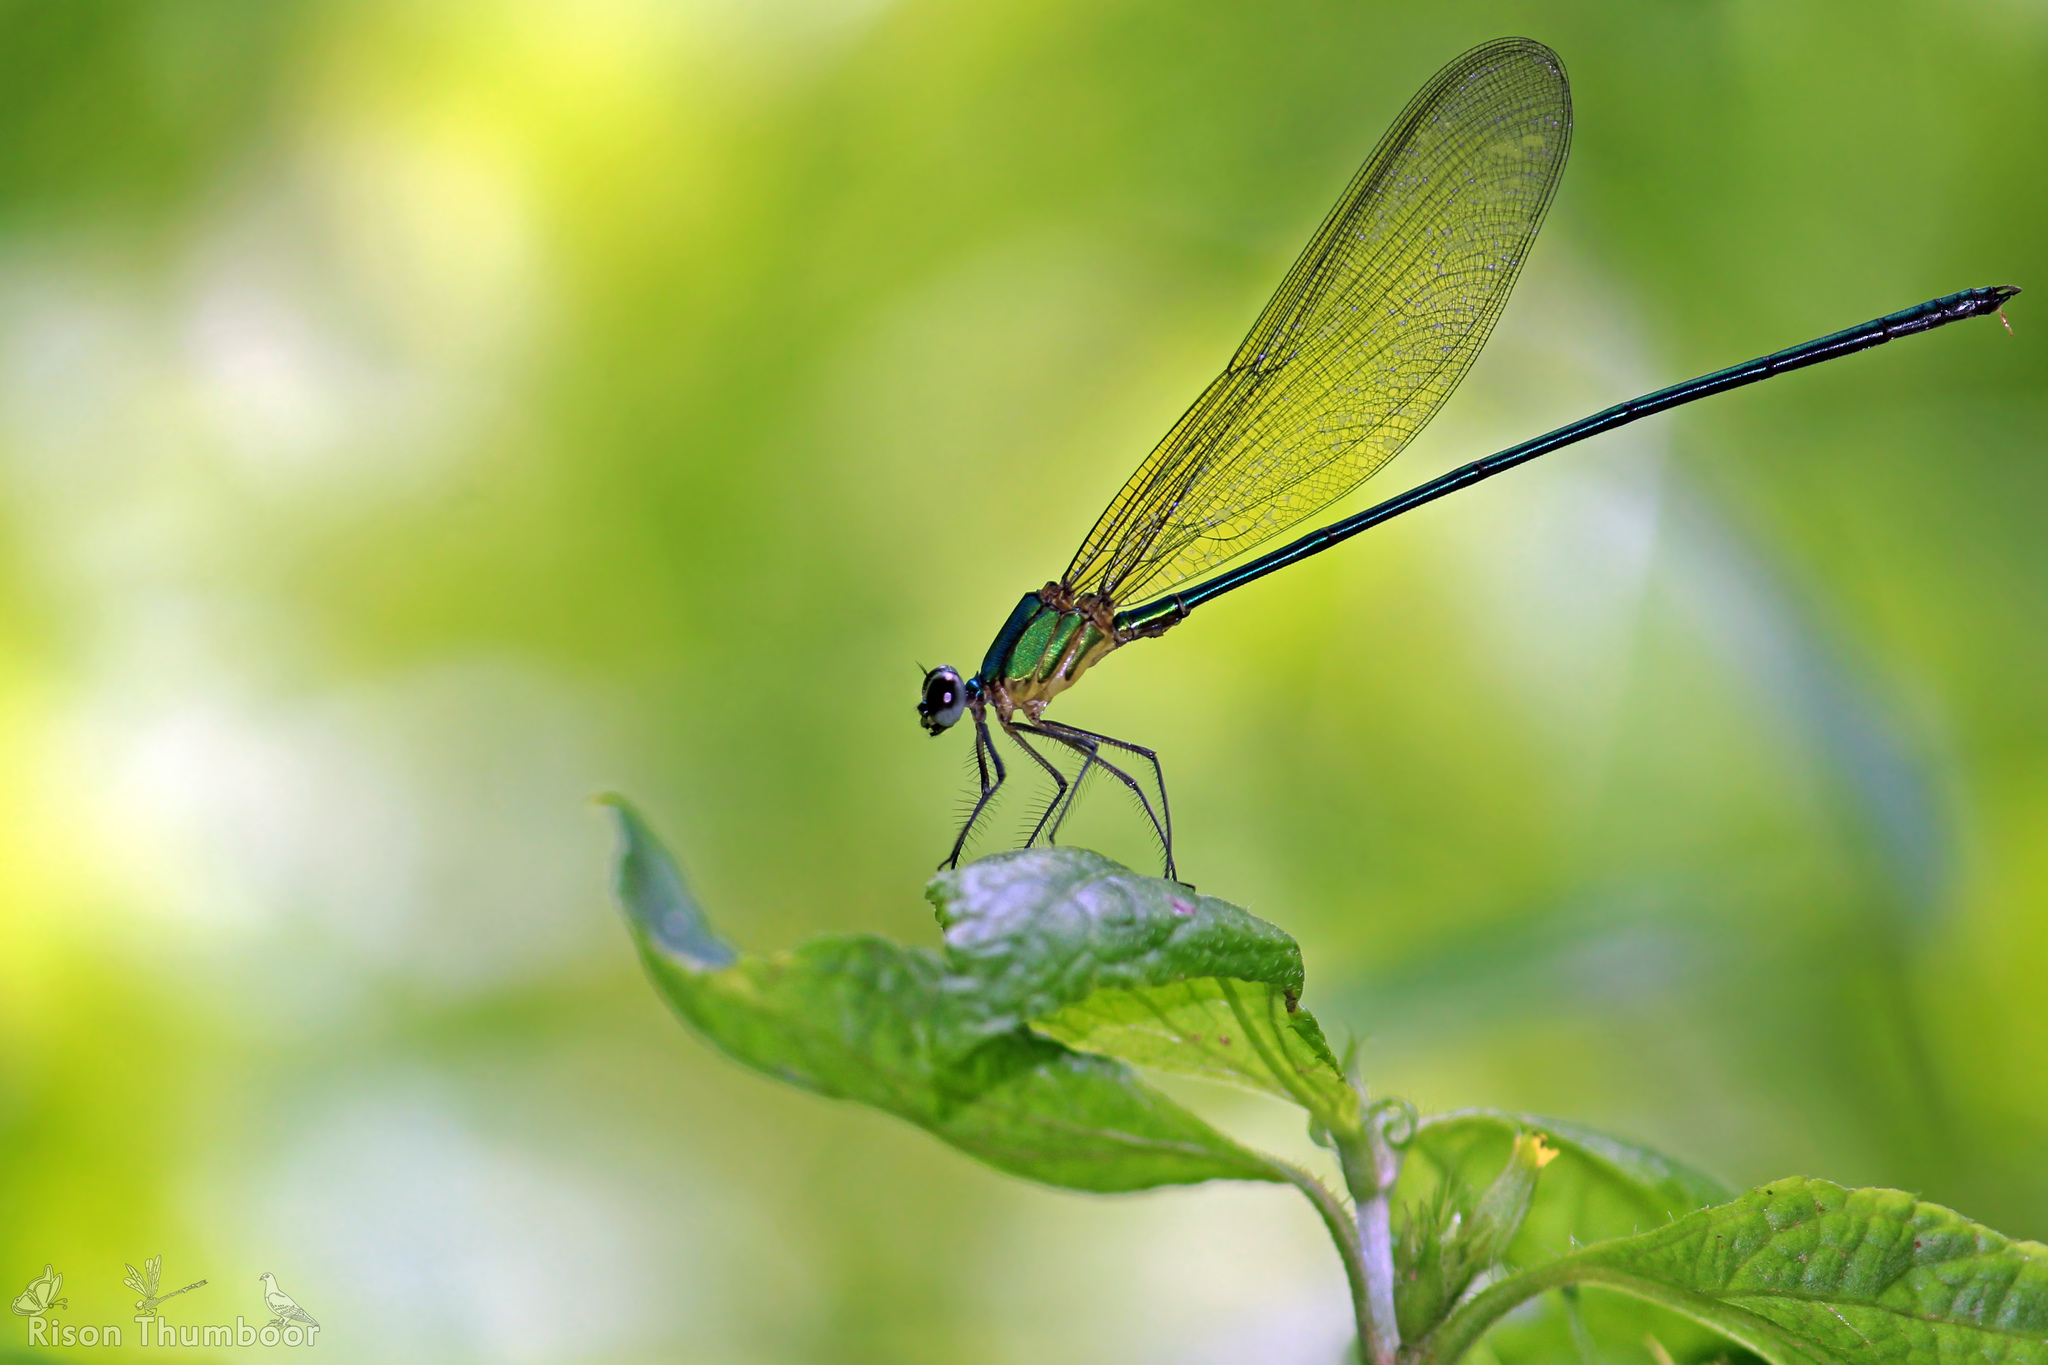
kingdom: Animalia
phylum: Arthropoda
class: Insecta
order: Odonata
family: Calopterygidae
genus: Vestalis
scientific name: Vestalis gracilis
